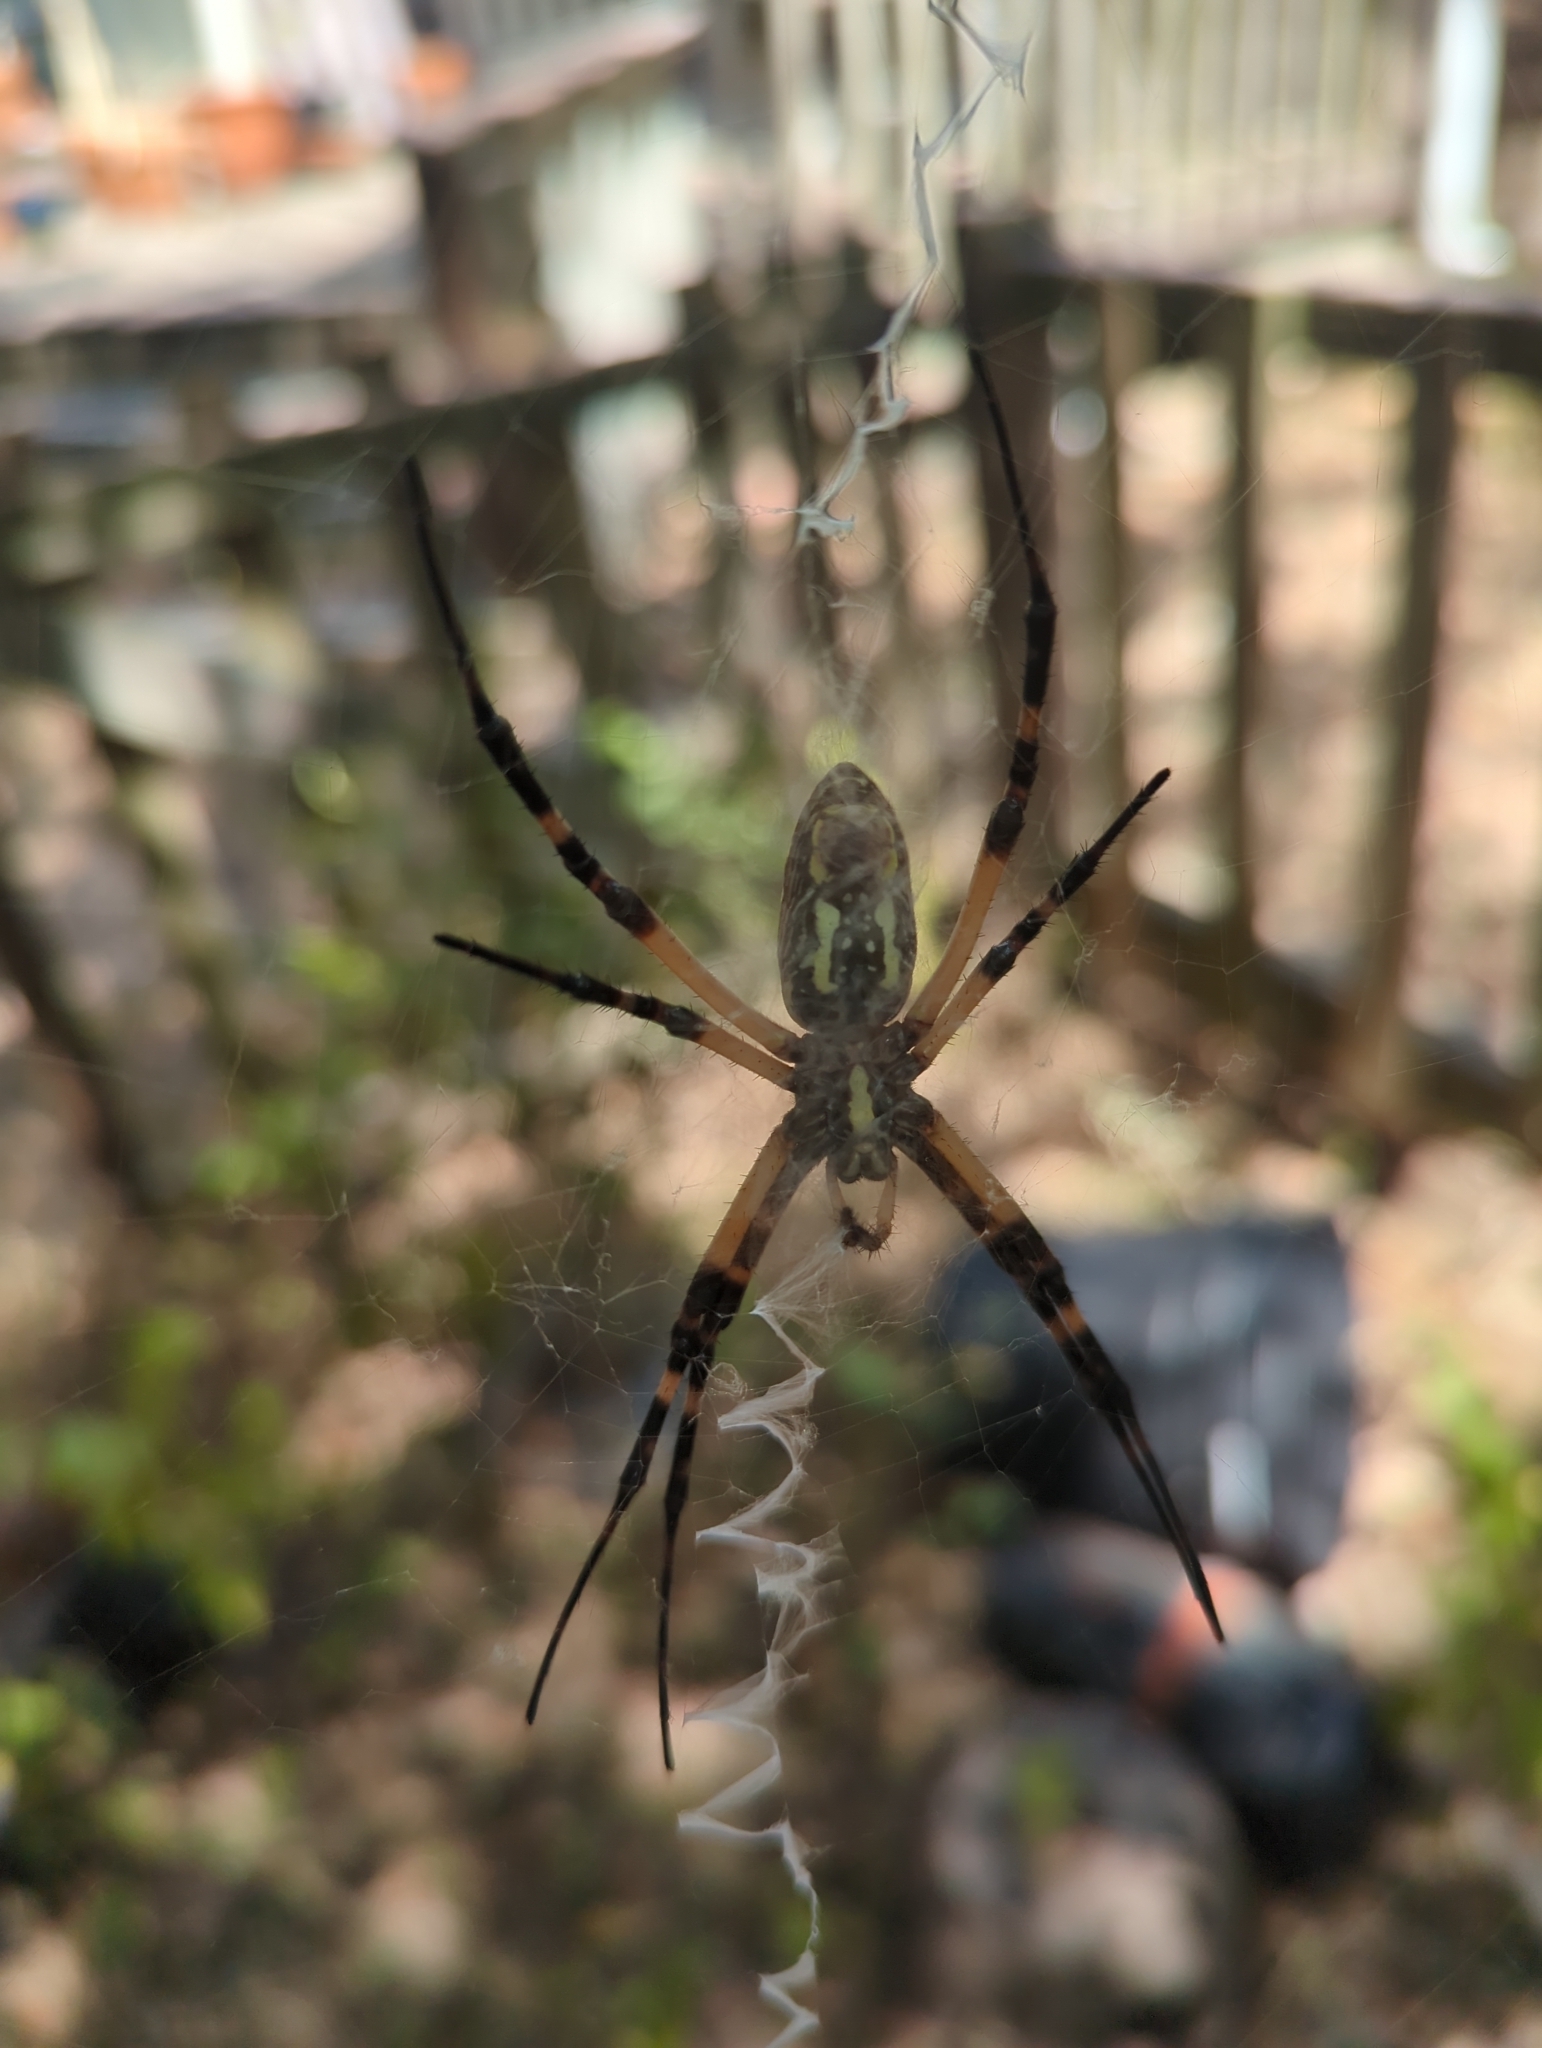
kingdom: Animalia
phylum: Arthropoda
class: Arachnida
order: Araneae
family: Araneidae
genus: Argiope
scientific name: Argiope aurantia
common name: Orb weavers
